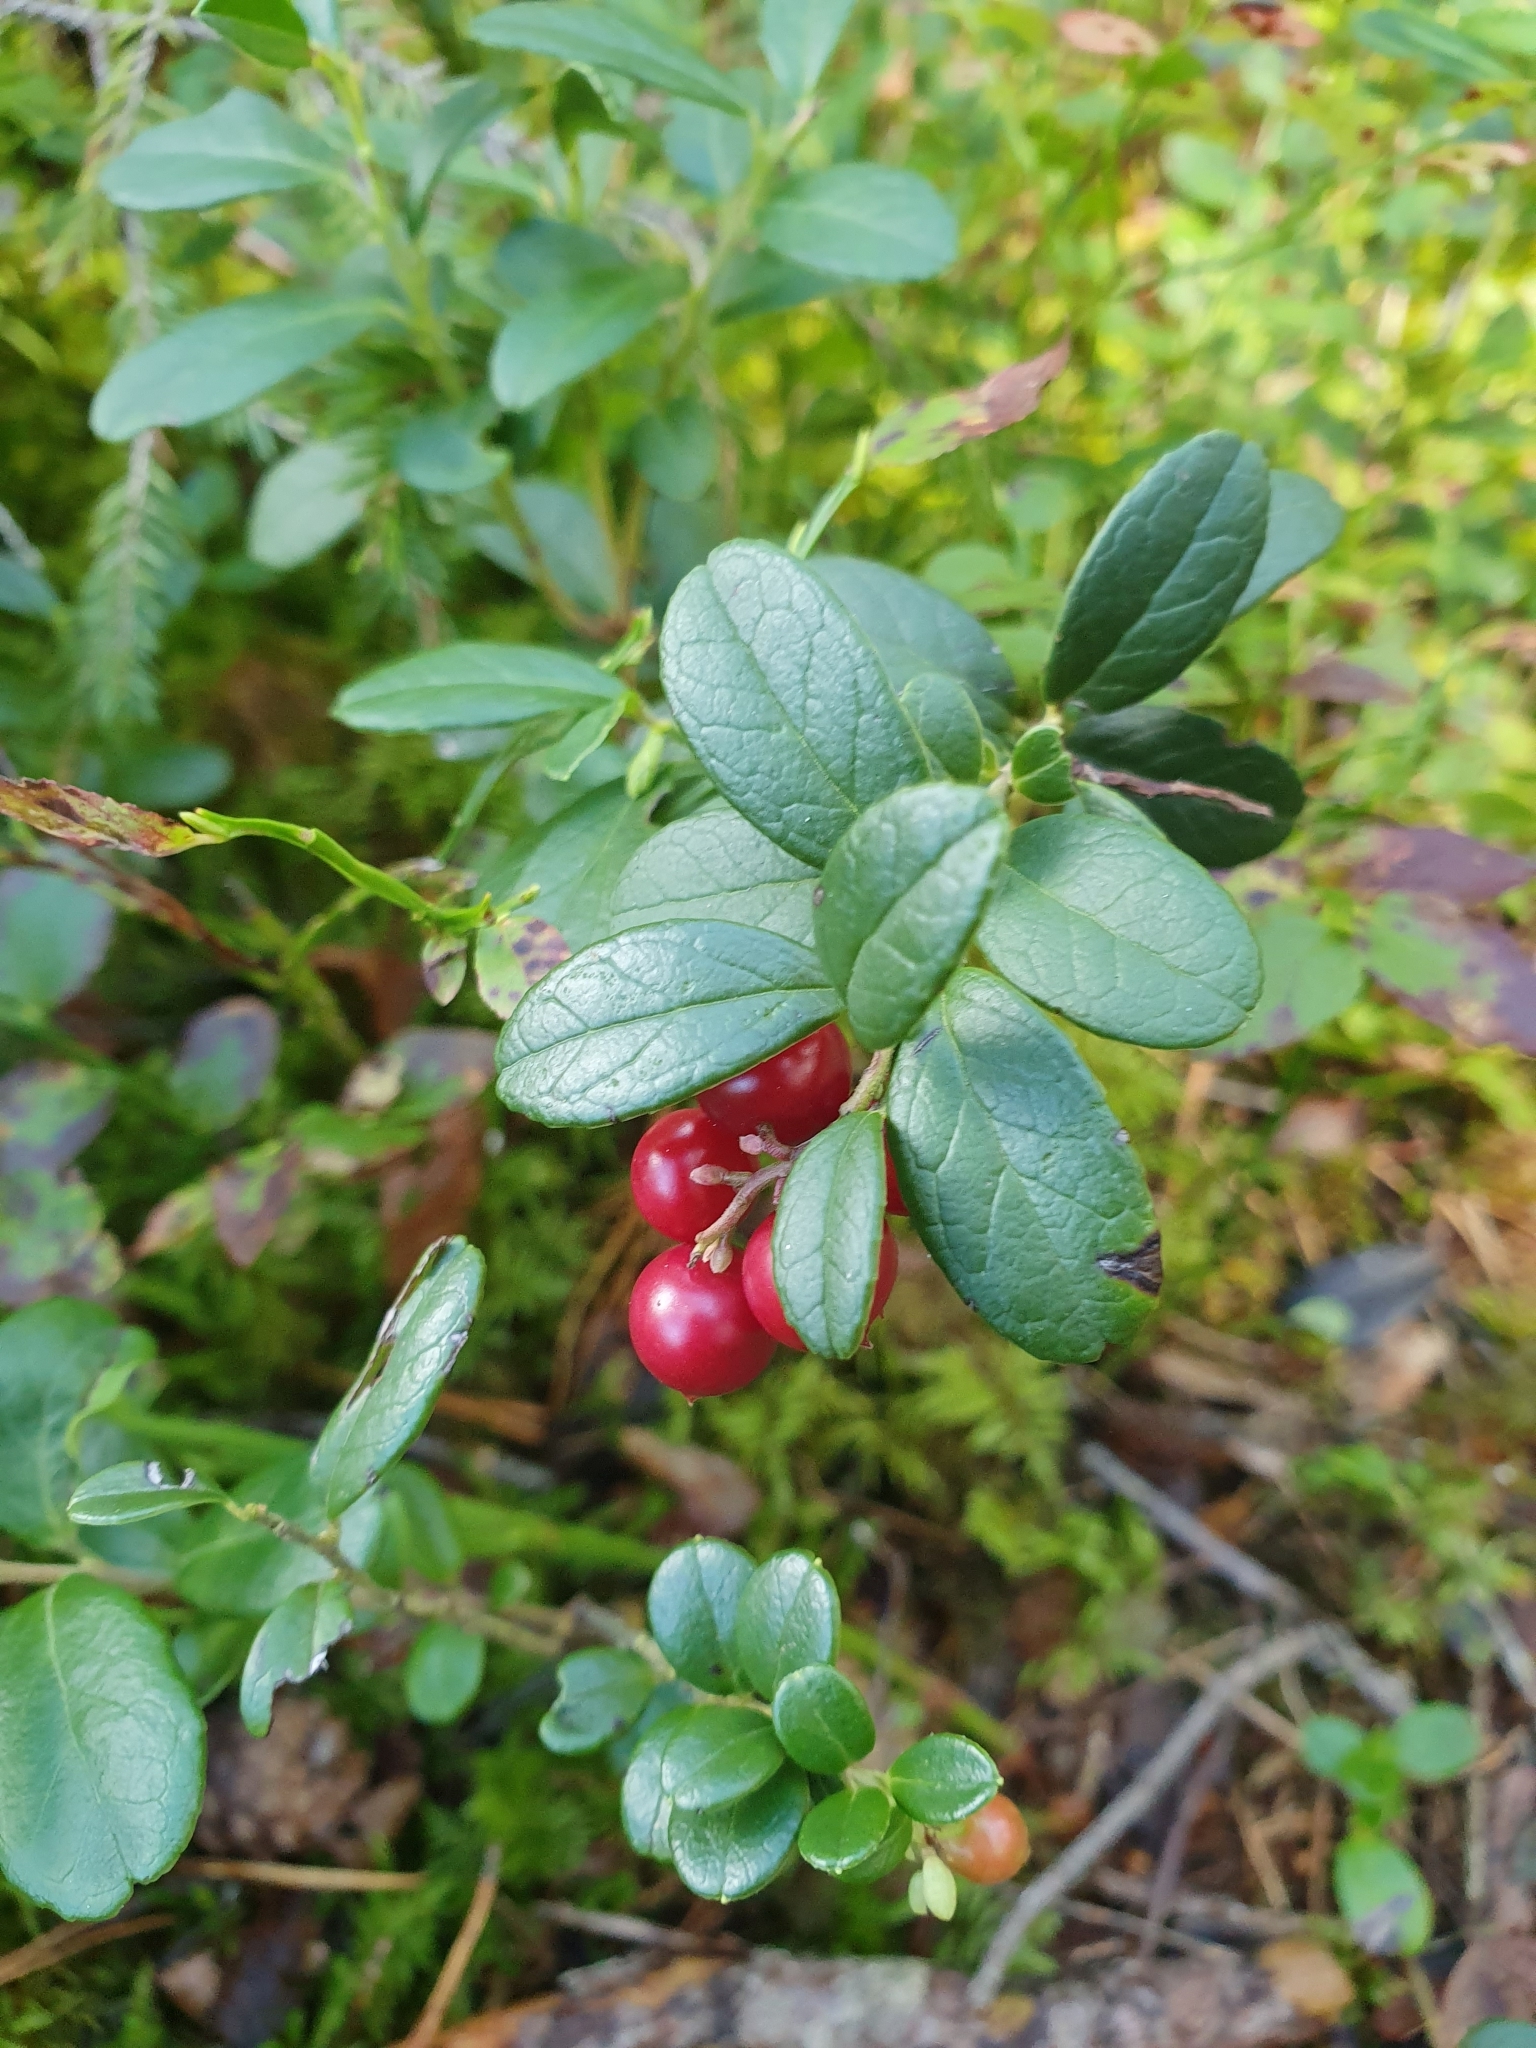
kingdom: Plantae
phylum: Tracheophyta
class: Magnoliopsida
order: Ericales
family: Ericaceae
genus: Vaccinium
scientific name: Vaccinium vitis-idaea
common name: Cowberry
